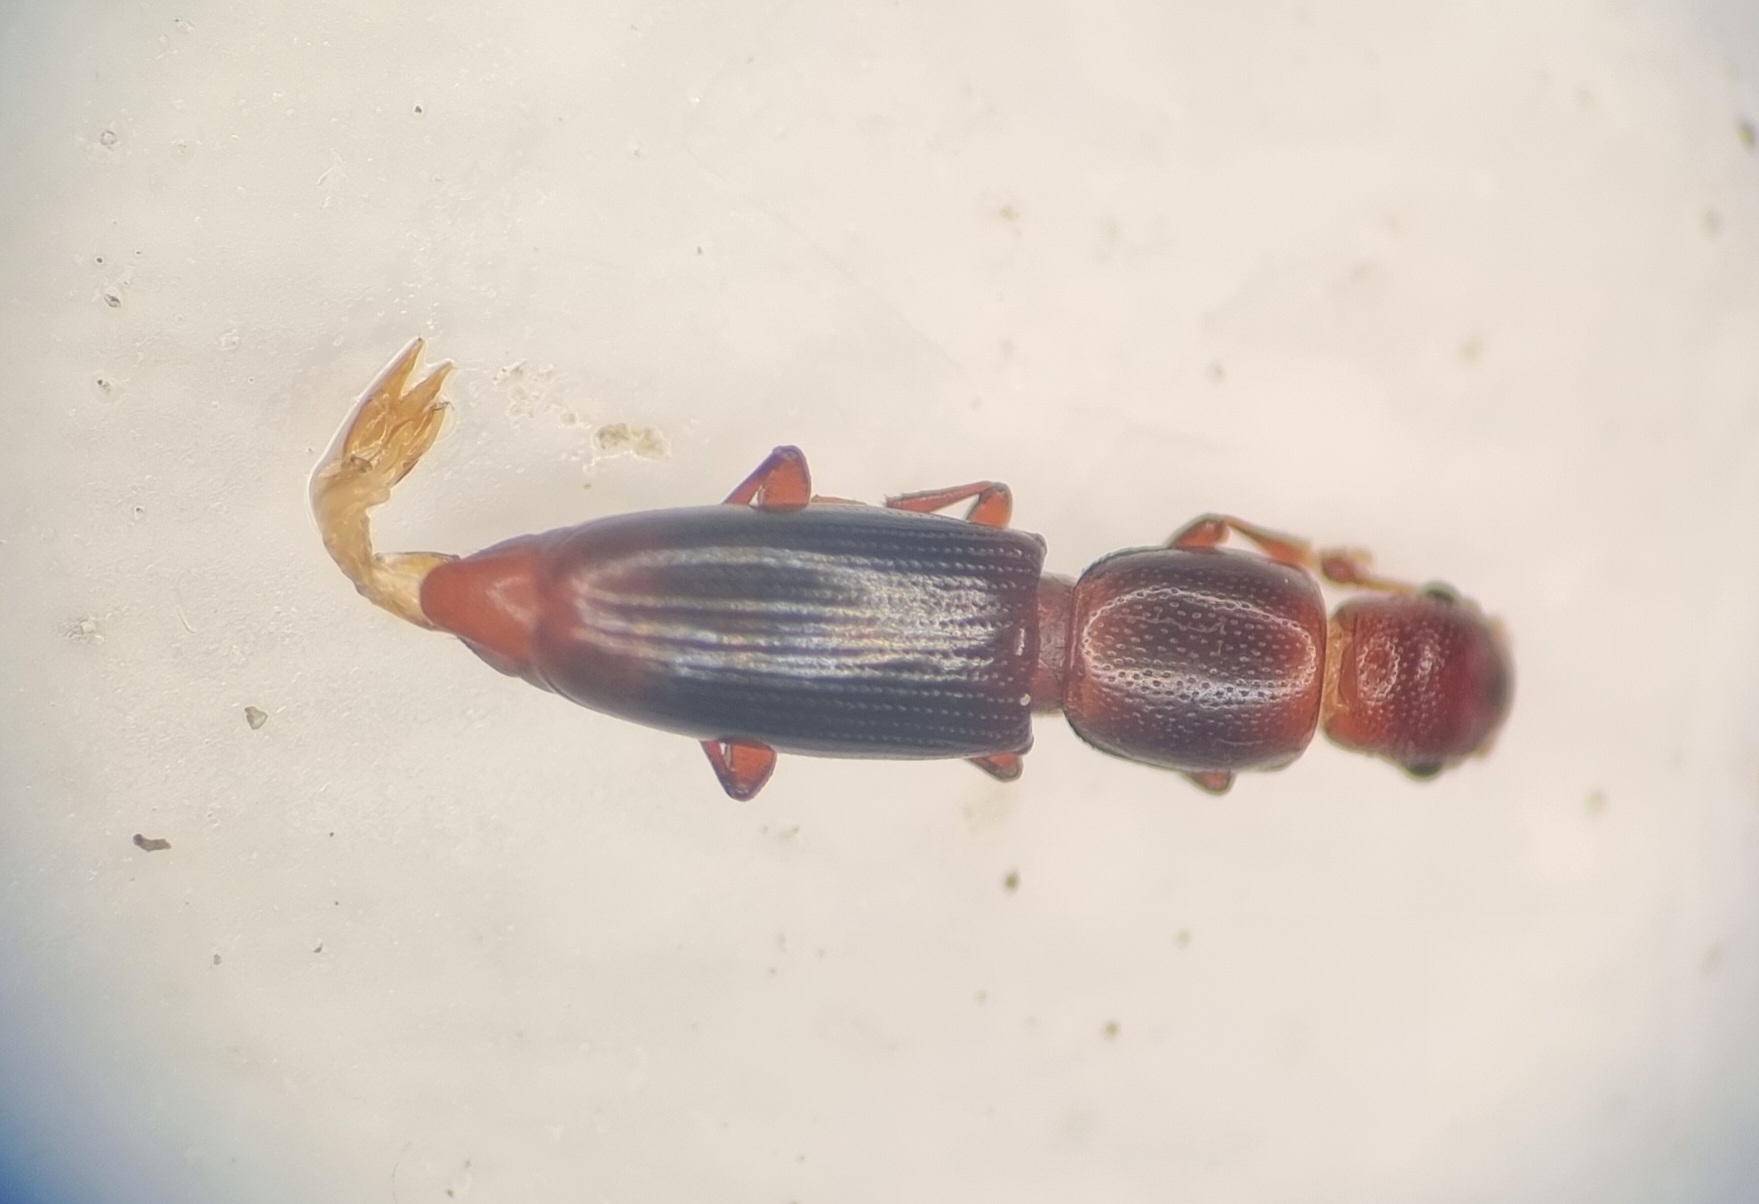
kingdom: Animalia
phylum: Arthropoda
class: Insecta
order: Coleoptera
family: Monotomidae
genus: Rhizophagus
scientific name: Rhizophagus dispar
